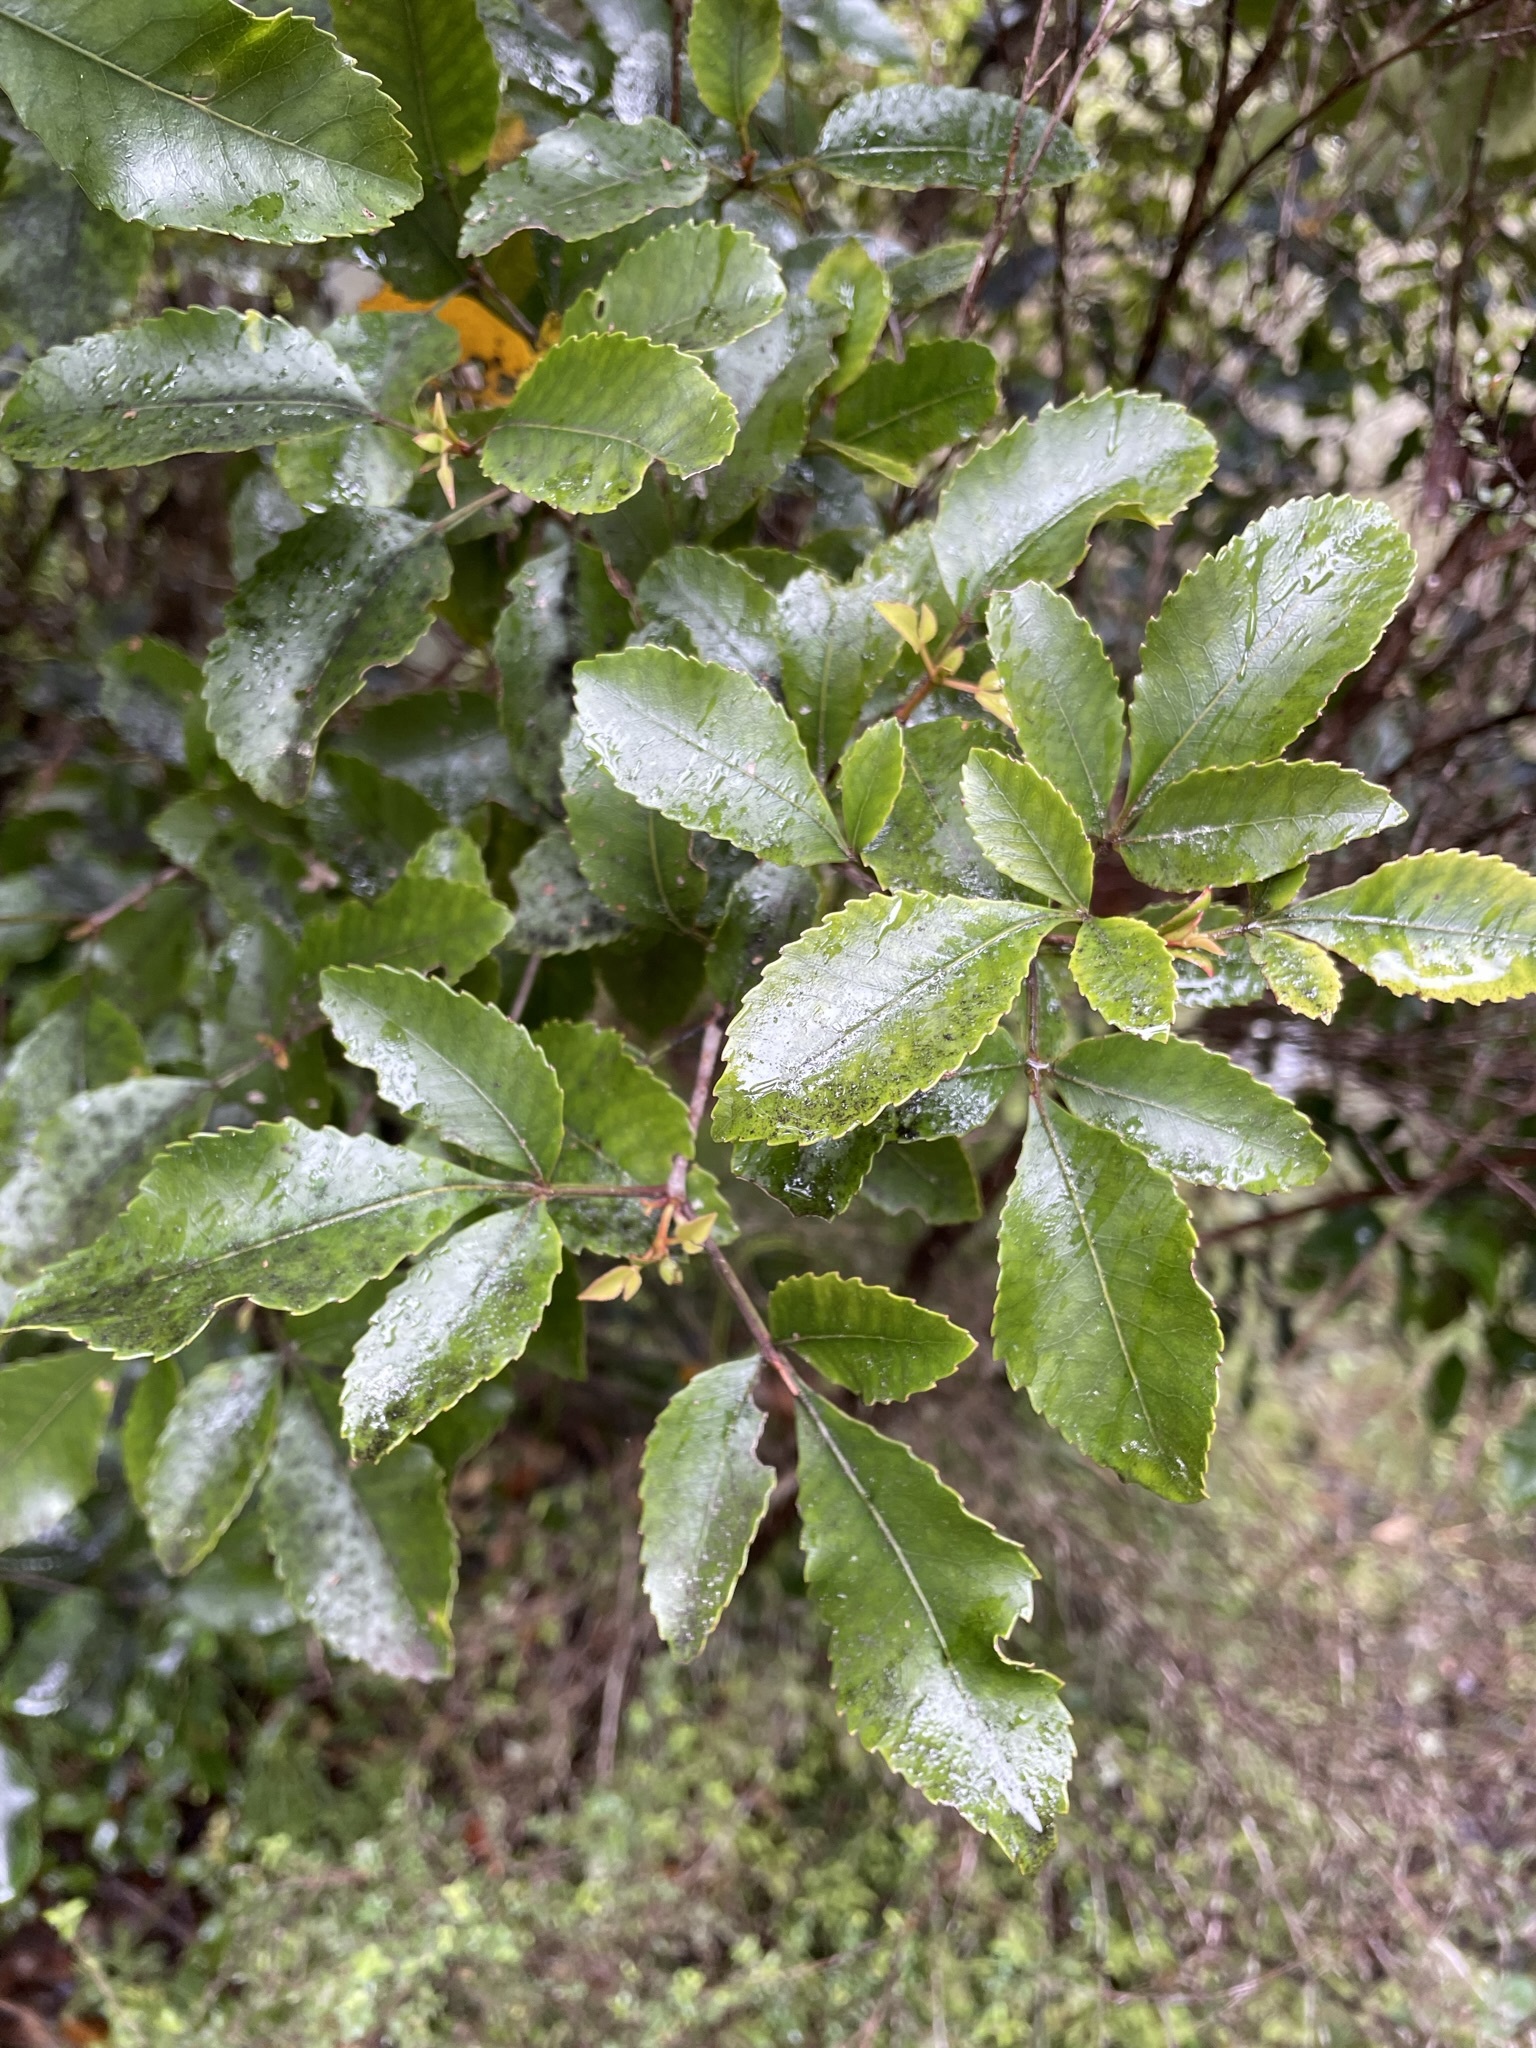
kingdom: Plantae
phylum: Tracheophyta
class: Magnoliopsida
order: Oxalidales
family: Cunoniaceae
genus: Pterophylla
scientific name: Pterophylla racemosa
